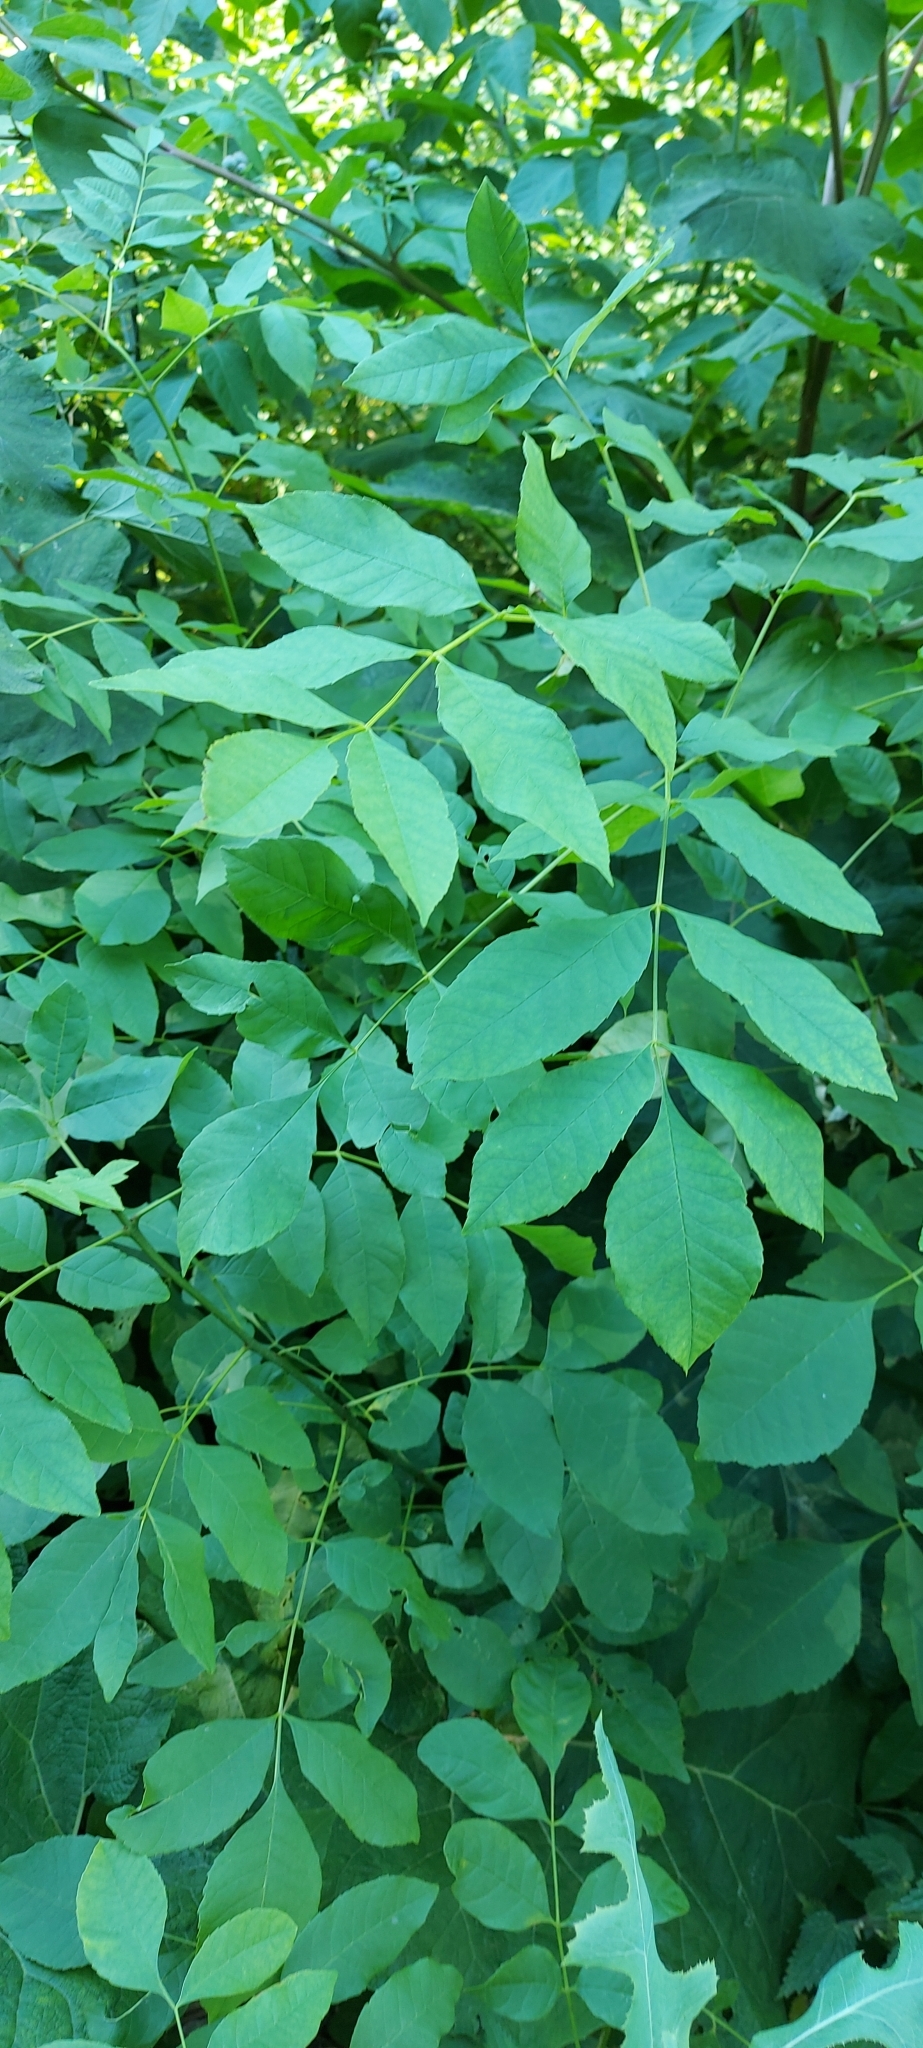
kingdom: Plantae
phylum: Tracheophyta
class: Magnoliopsida
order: Lamiales
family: Oleaceae
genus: Fraxinus
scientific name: Fraxinus pennsylvanica
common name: Green ash
